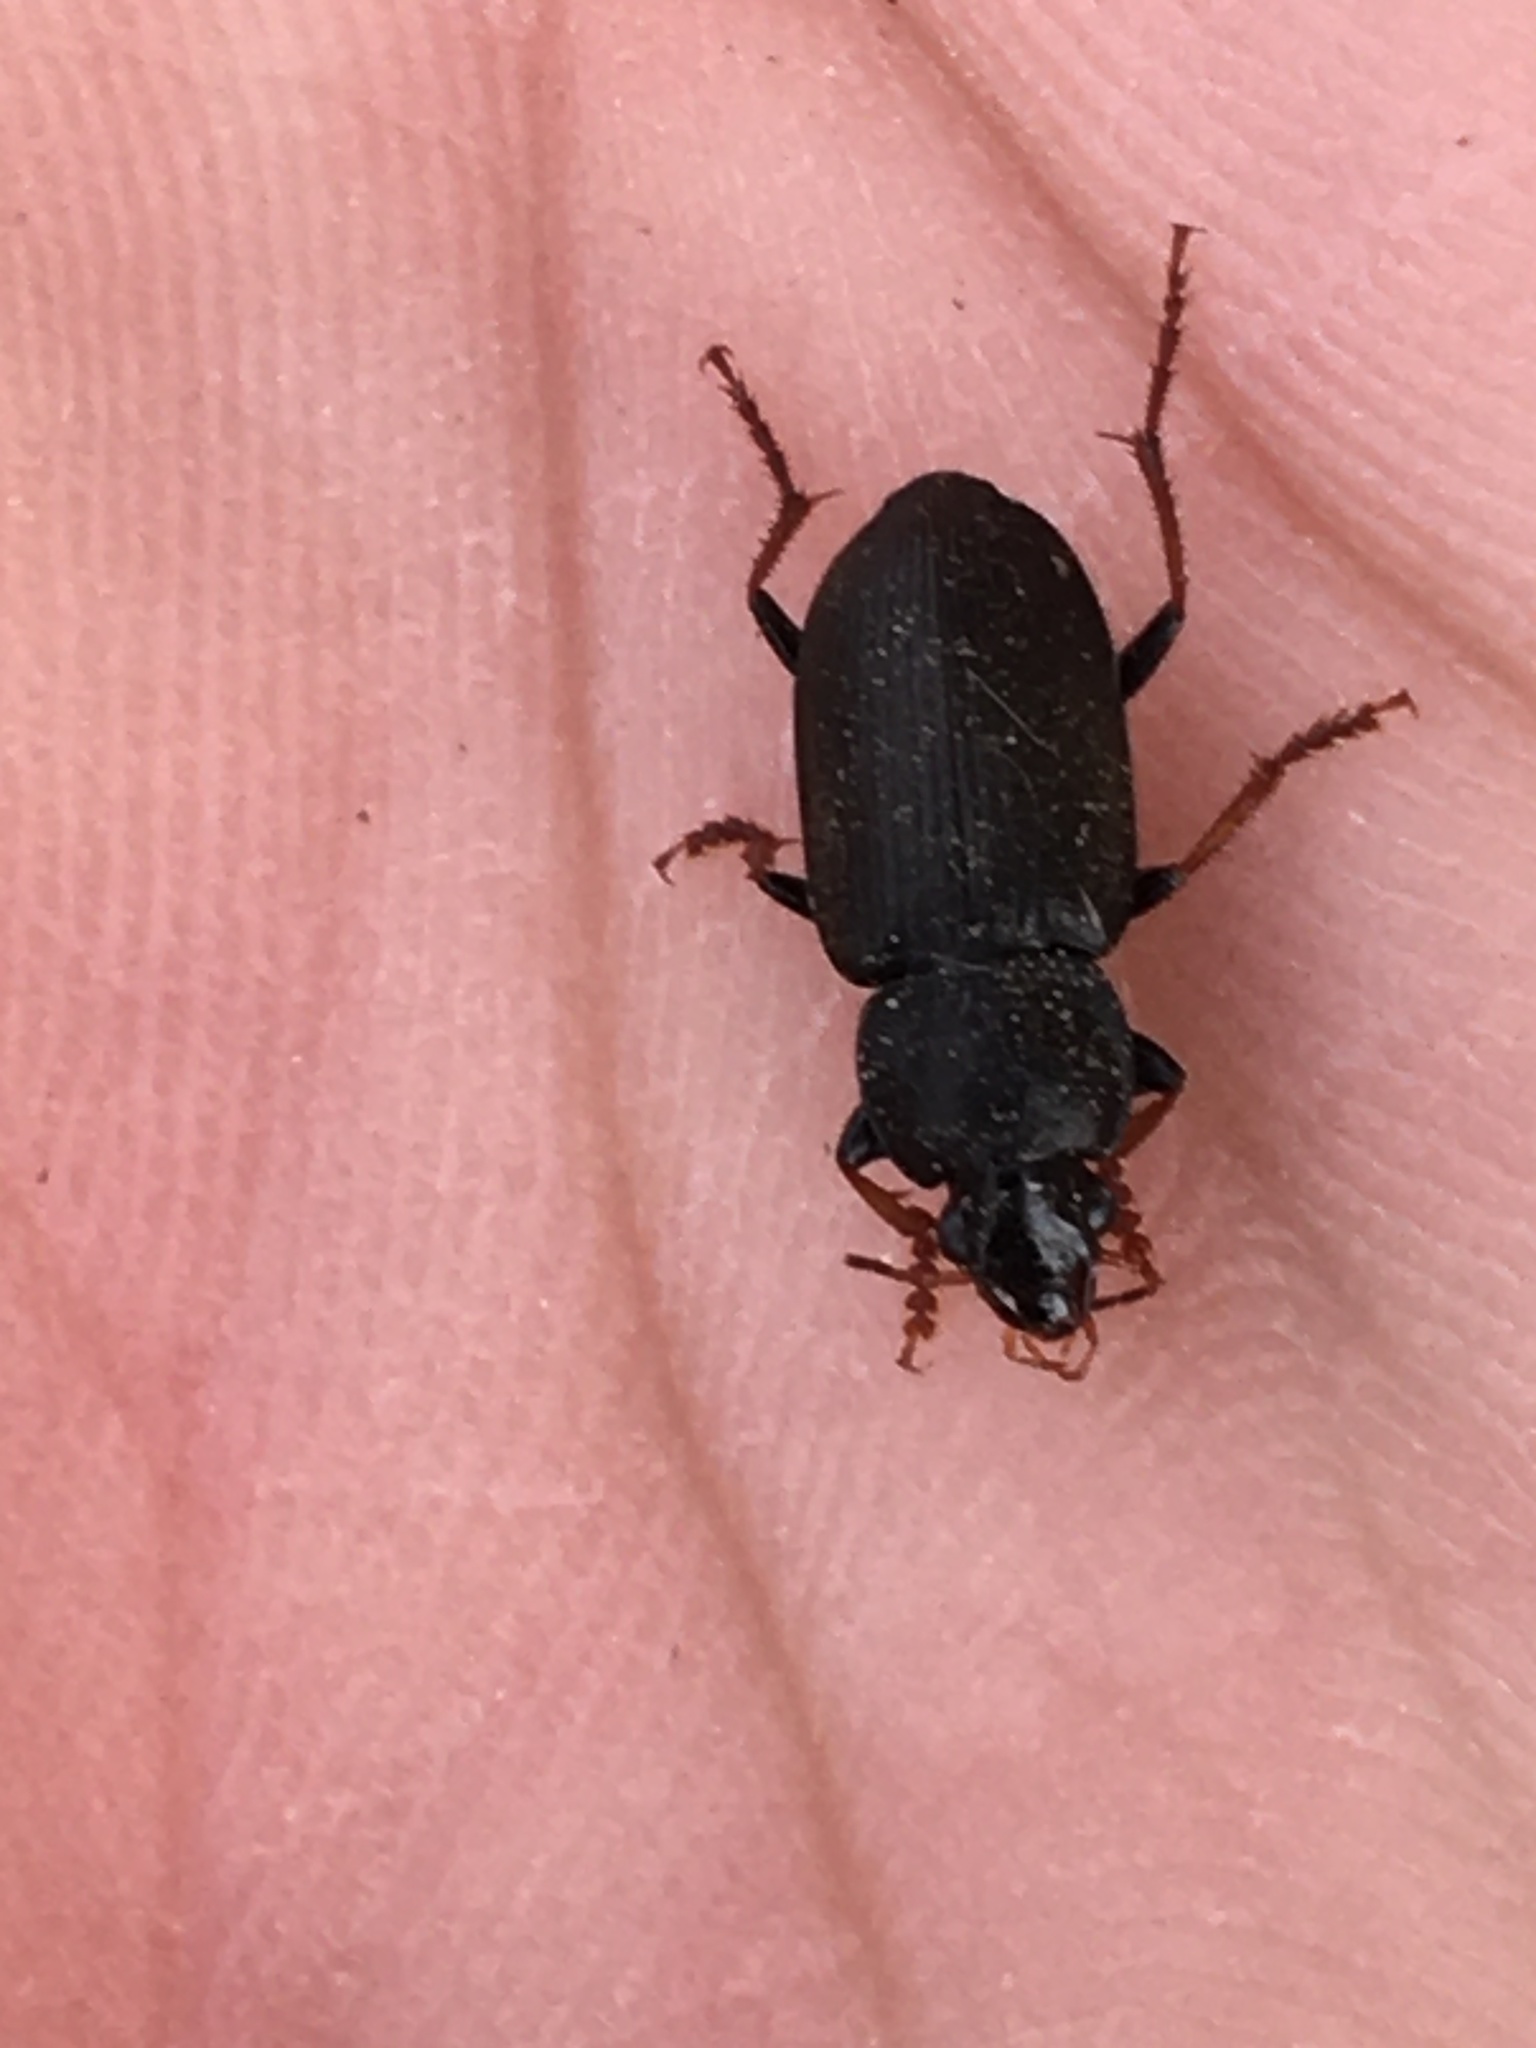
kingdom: Animalia
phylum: Arthropoda
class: Insecta
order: Coleoptera
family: Carabidae
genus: Amphasia
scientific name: Amphasia sericea
